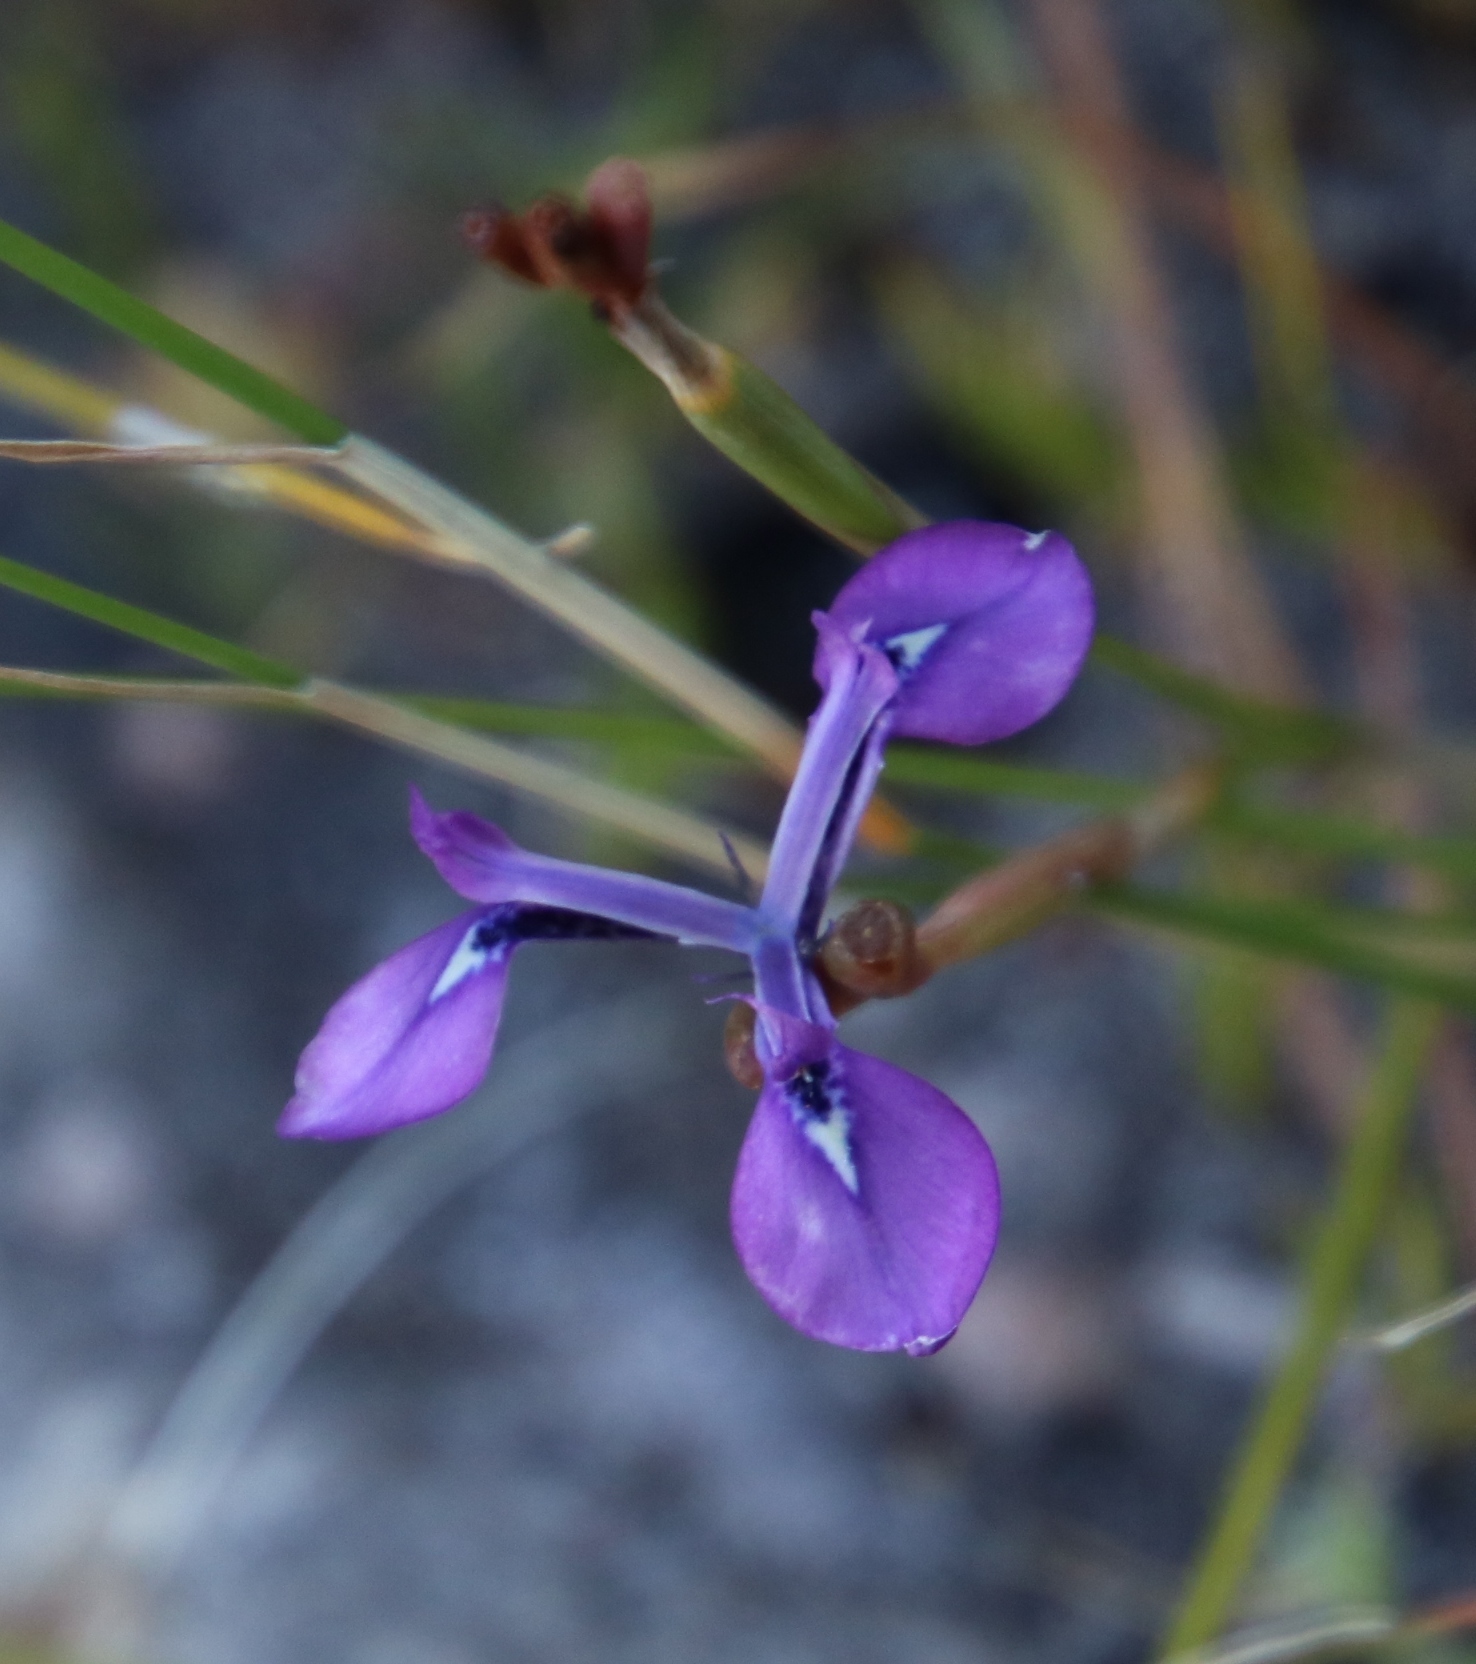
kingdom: Plantae
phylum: Tracheophyta
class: Liliopsida
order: Asparagales
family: Iridaceae
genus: Moraea
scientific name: Moraea tripetala
